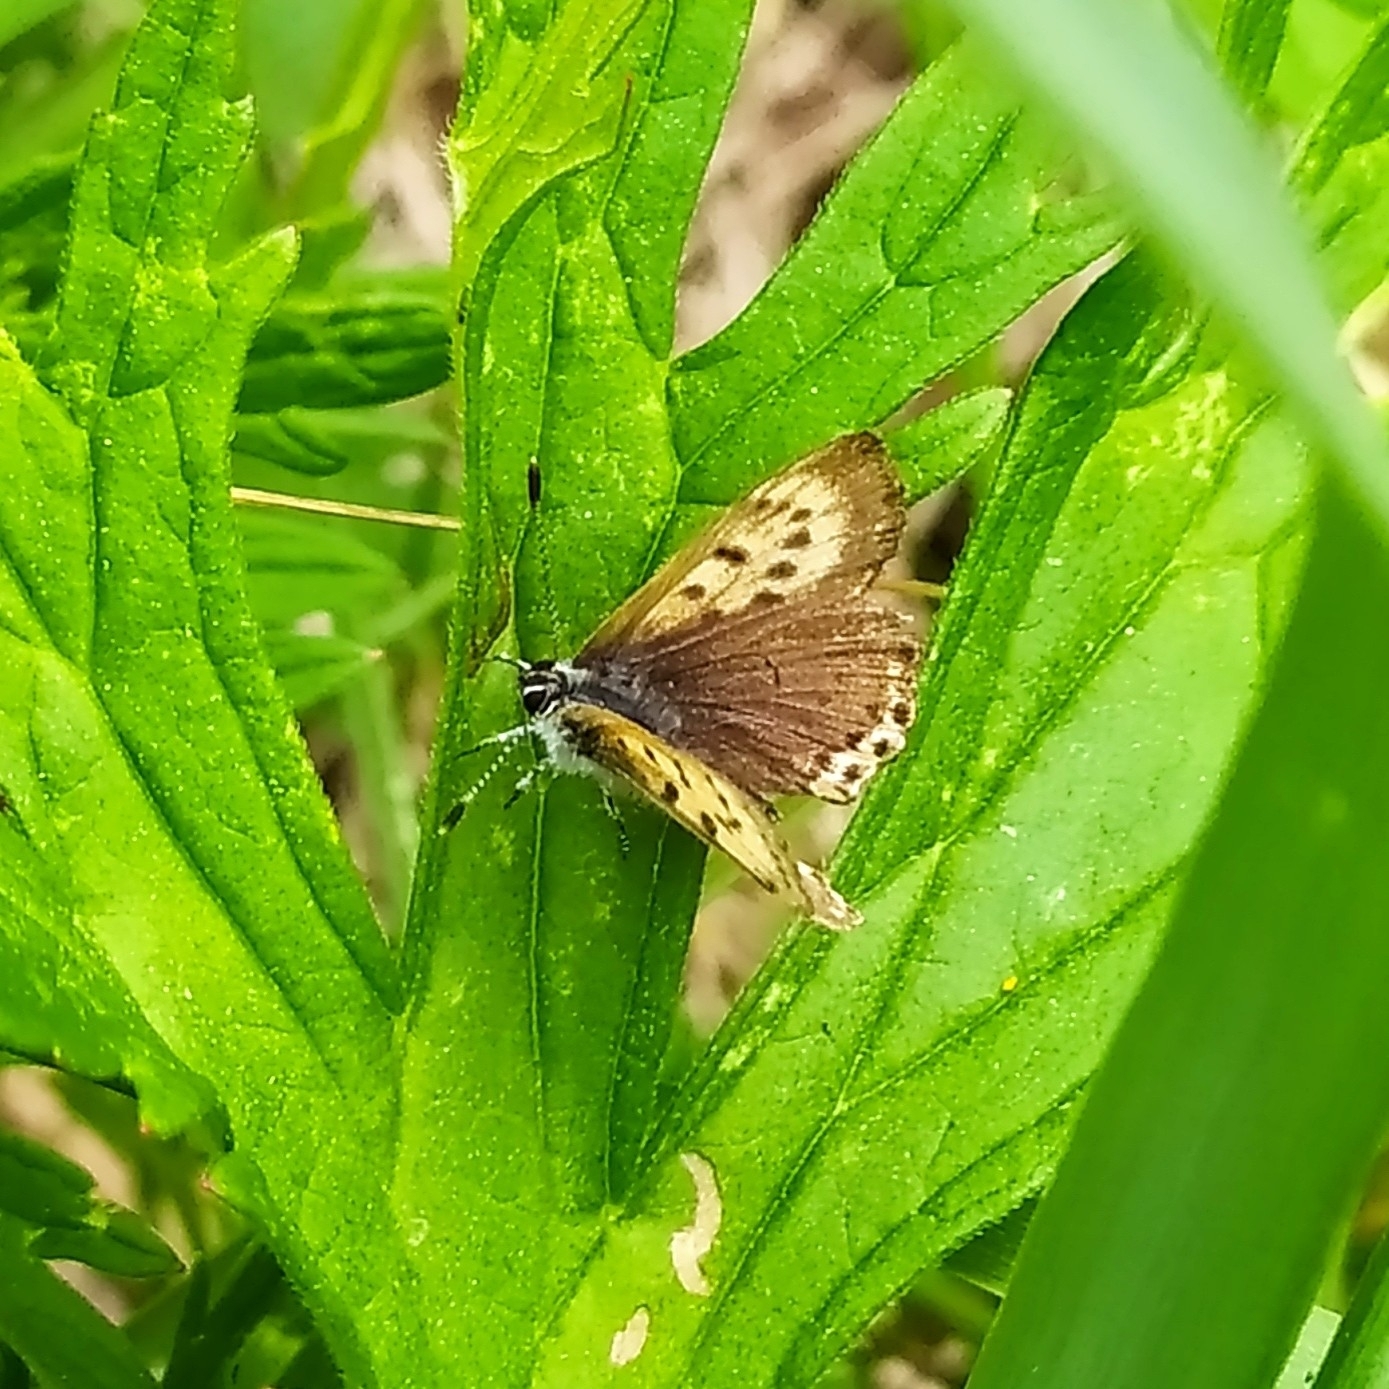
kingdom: Animalia
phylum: Arthropoda
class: Insecta
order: Lepidoptera
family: Lycaenidae
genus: Helleia
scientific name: Helleia helle
